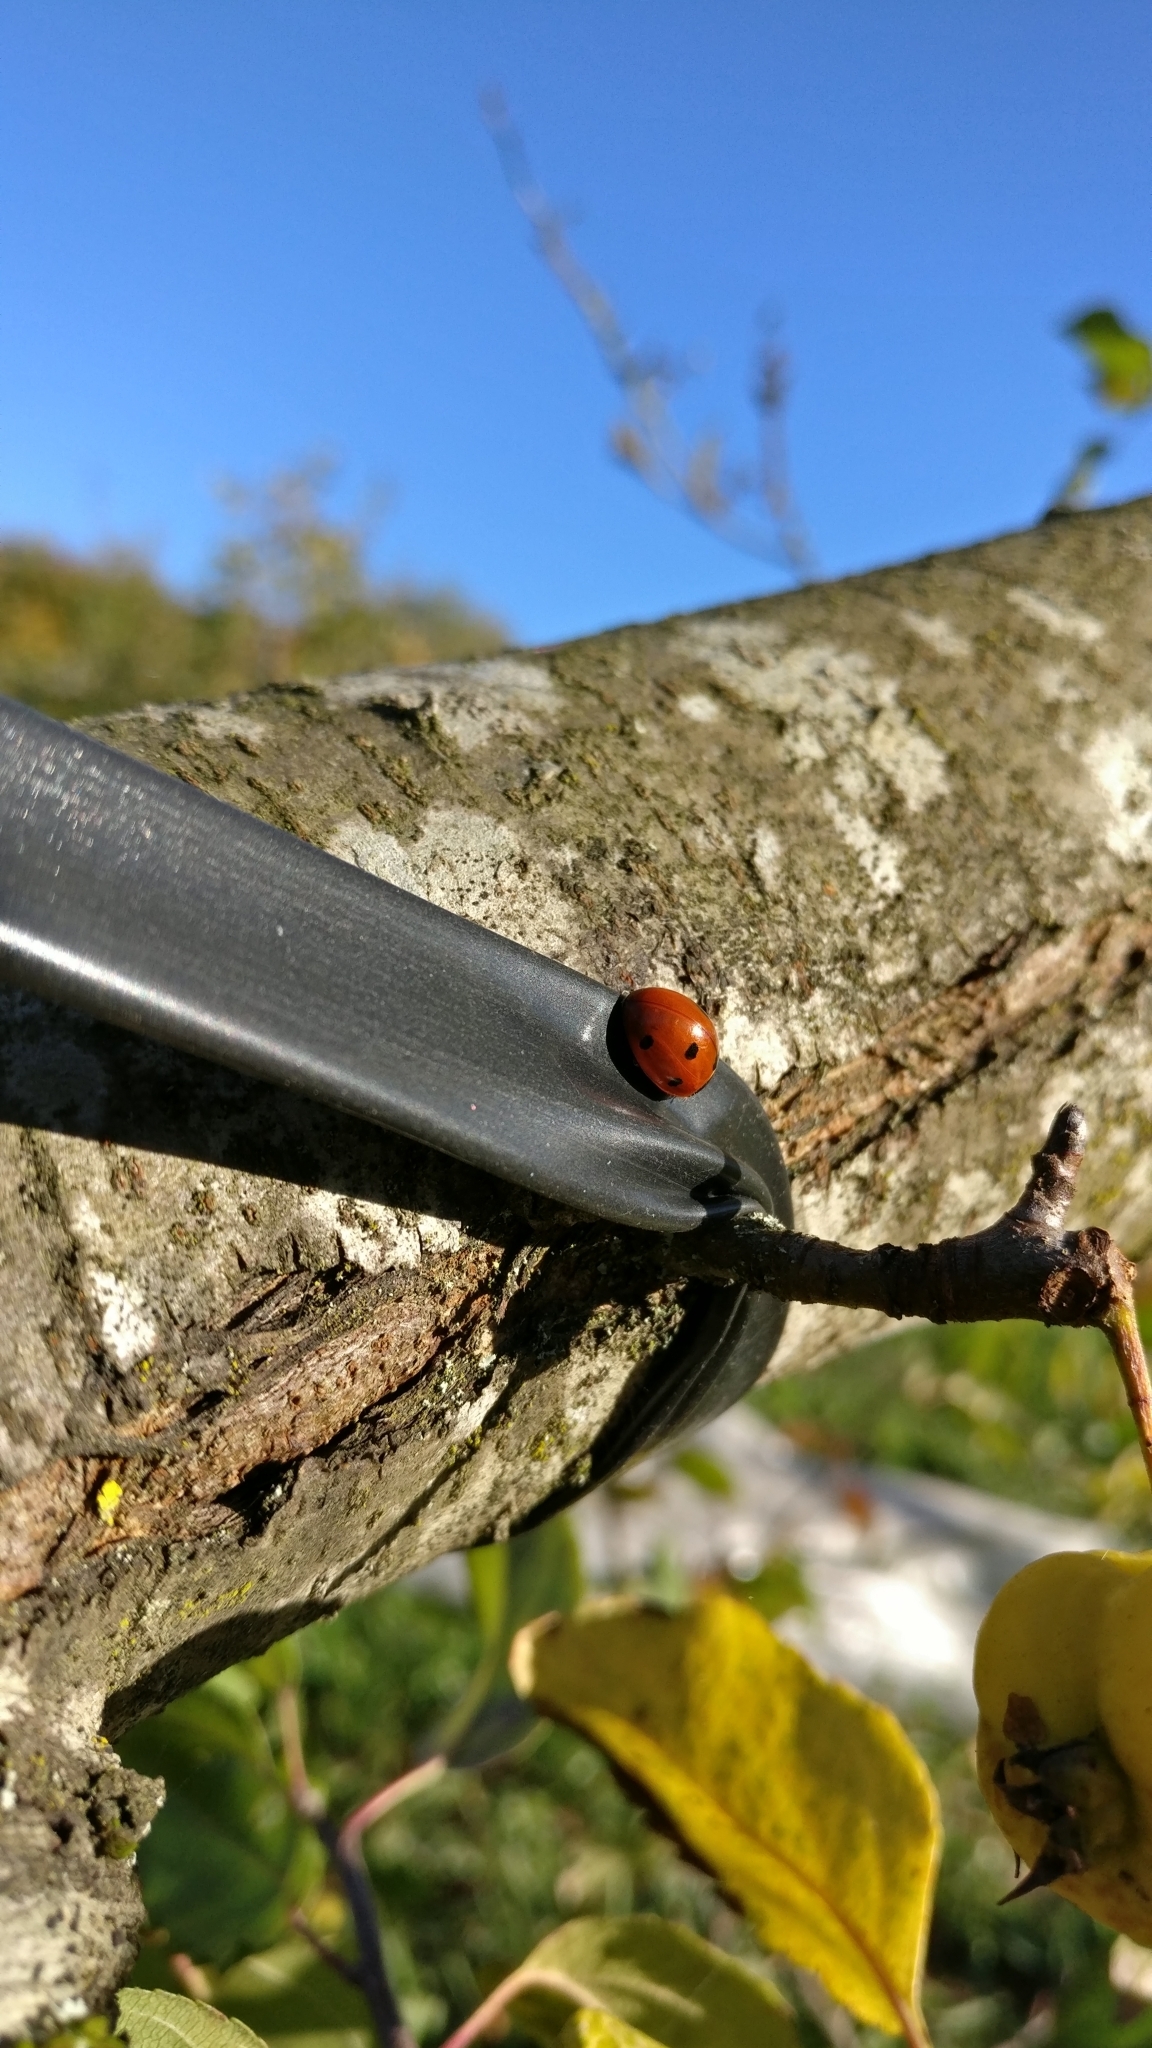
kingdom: Animalia
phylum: Arthropoda
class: Insecta
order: Coleoptera
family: Coccinellidae
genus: Coccinella
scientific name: Coccinella septempunctata
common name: Sevenspotted lady beetle
